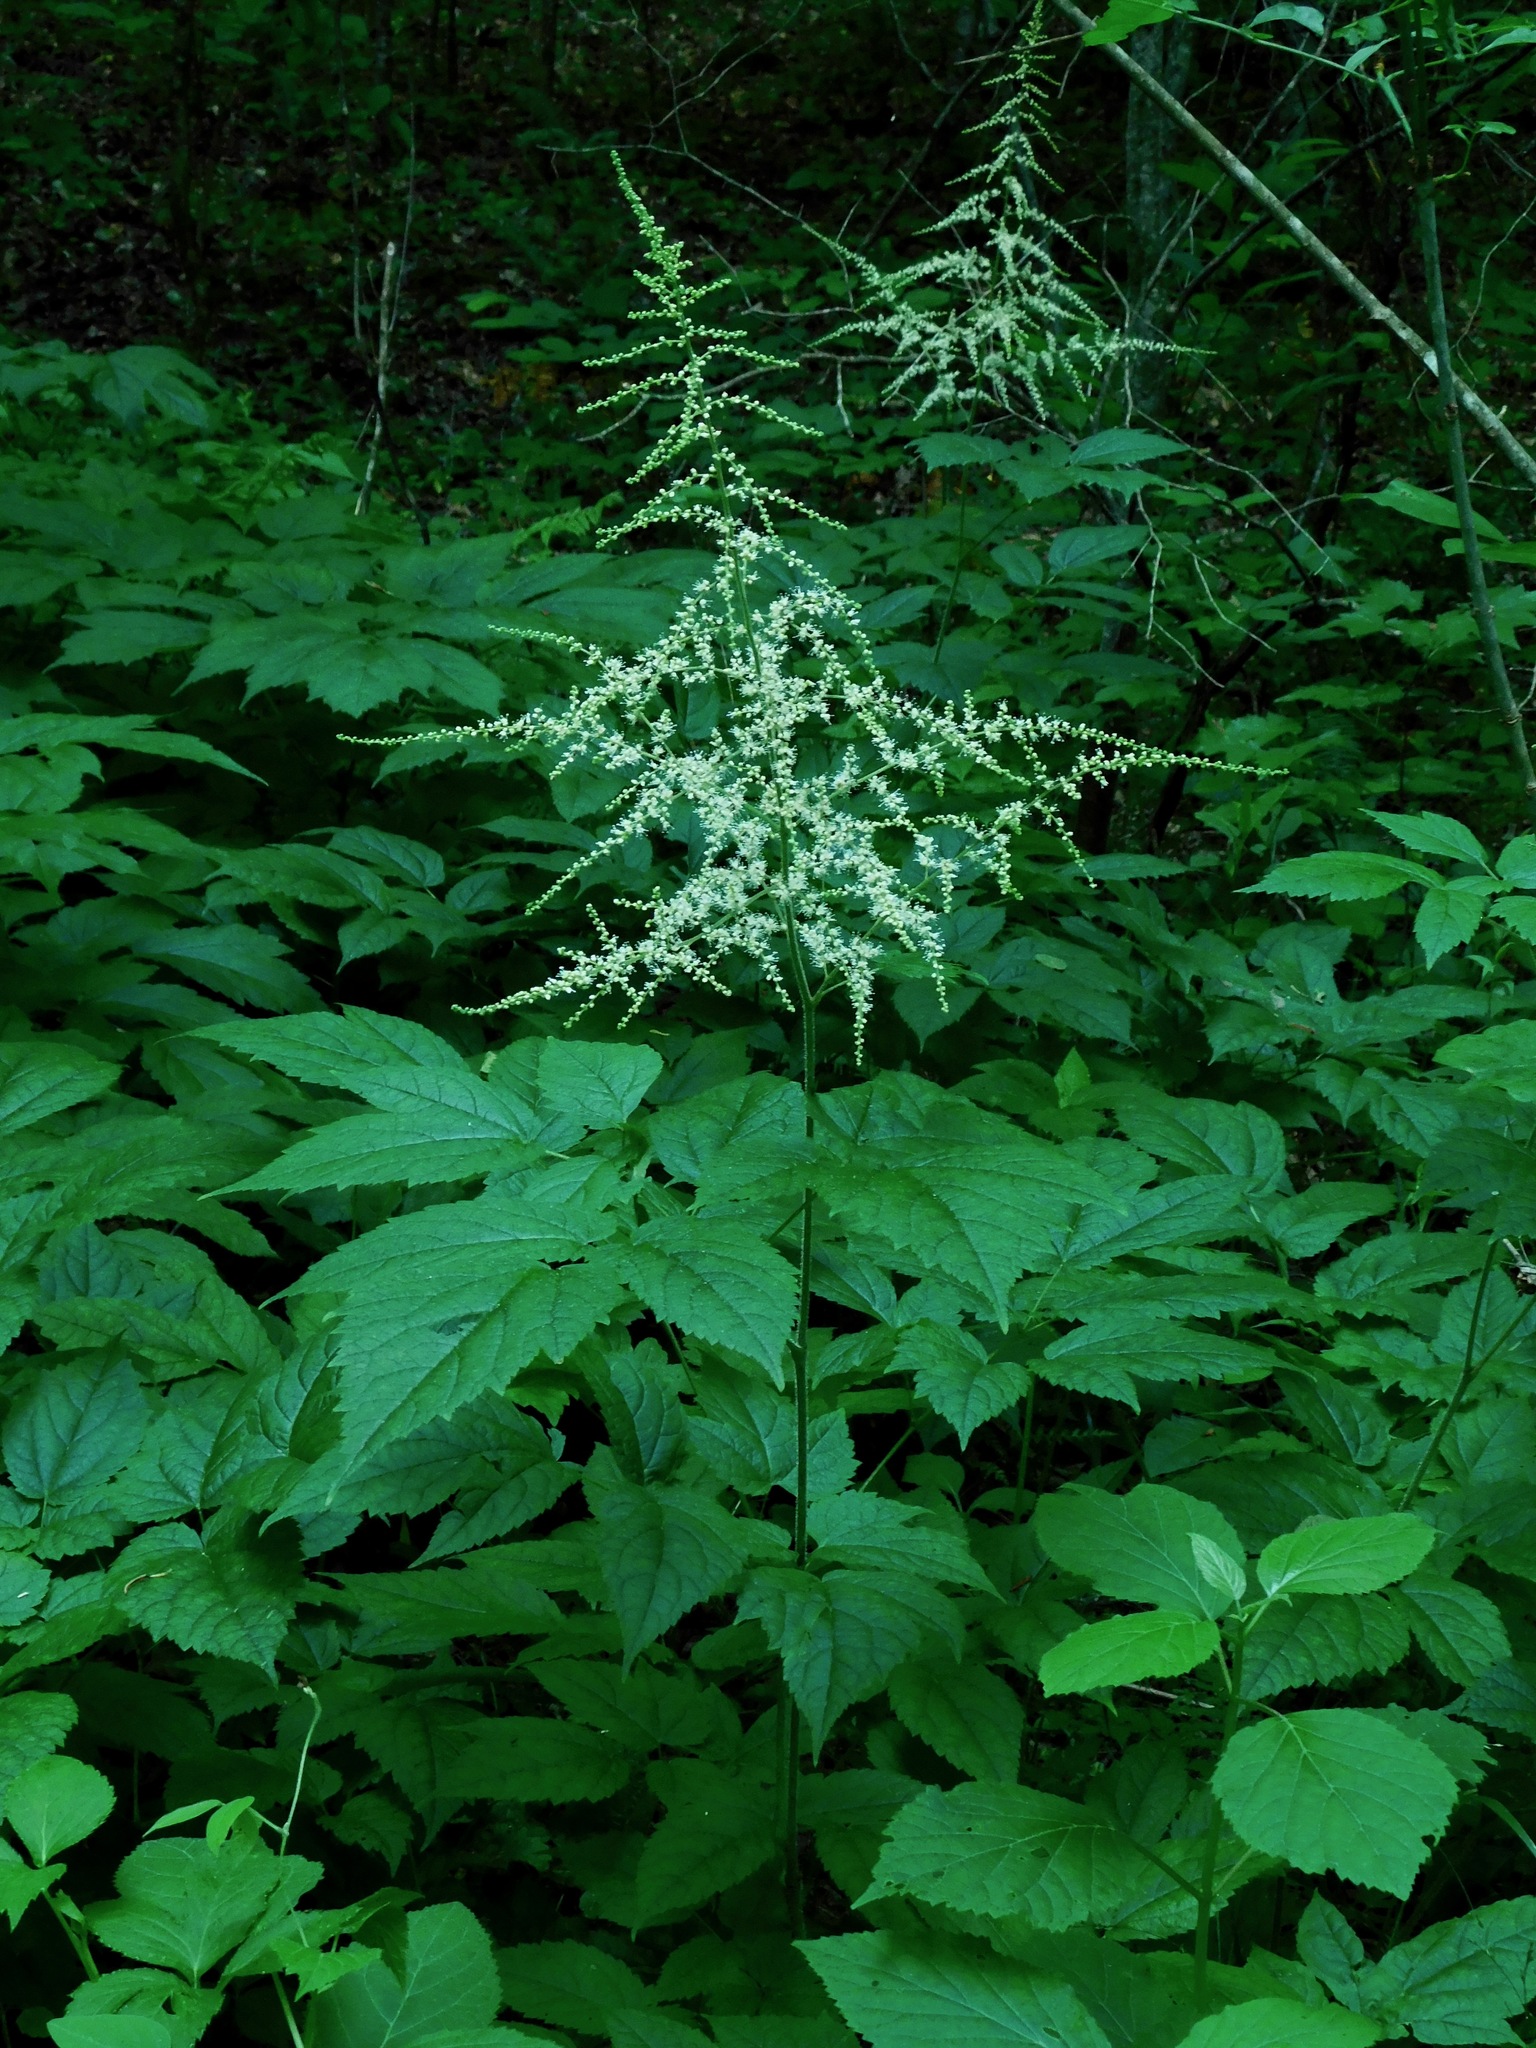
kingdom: Plantae
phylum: Tracheophyta
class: Magnoliopsida
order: Saxifragales
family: Saxifragaceae
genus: Astilbe
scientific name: Astilbe biternata
